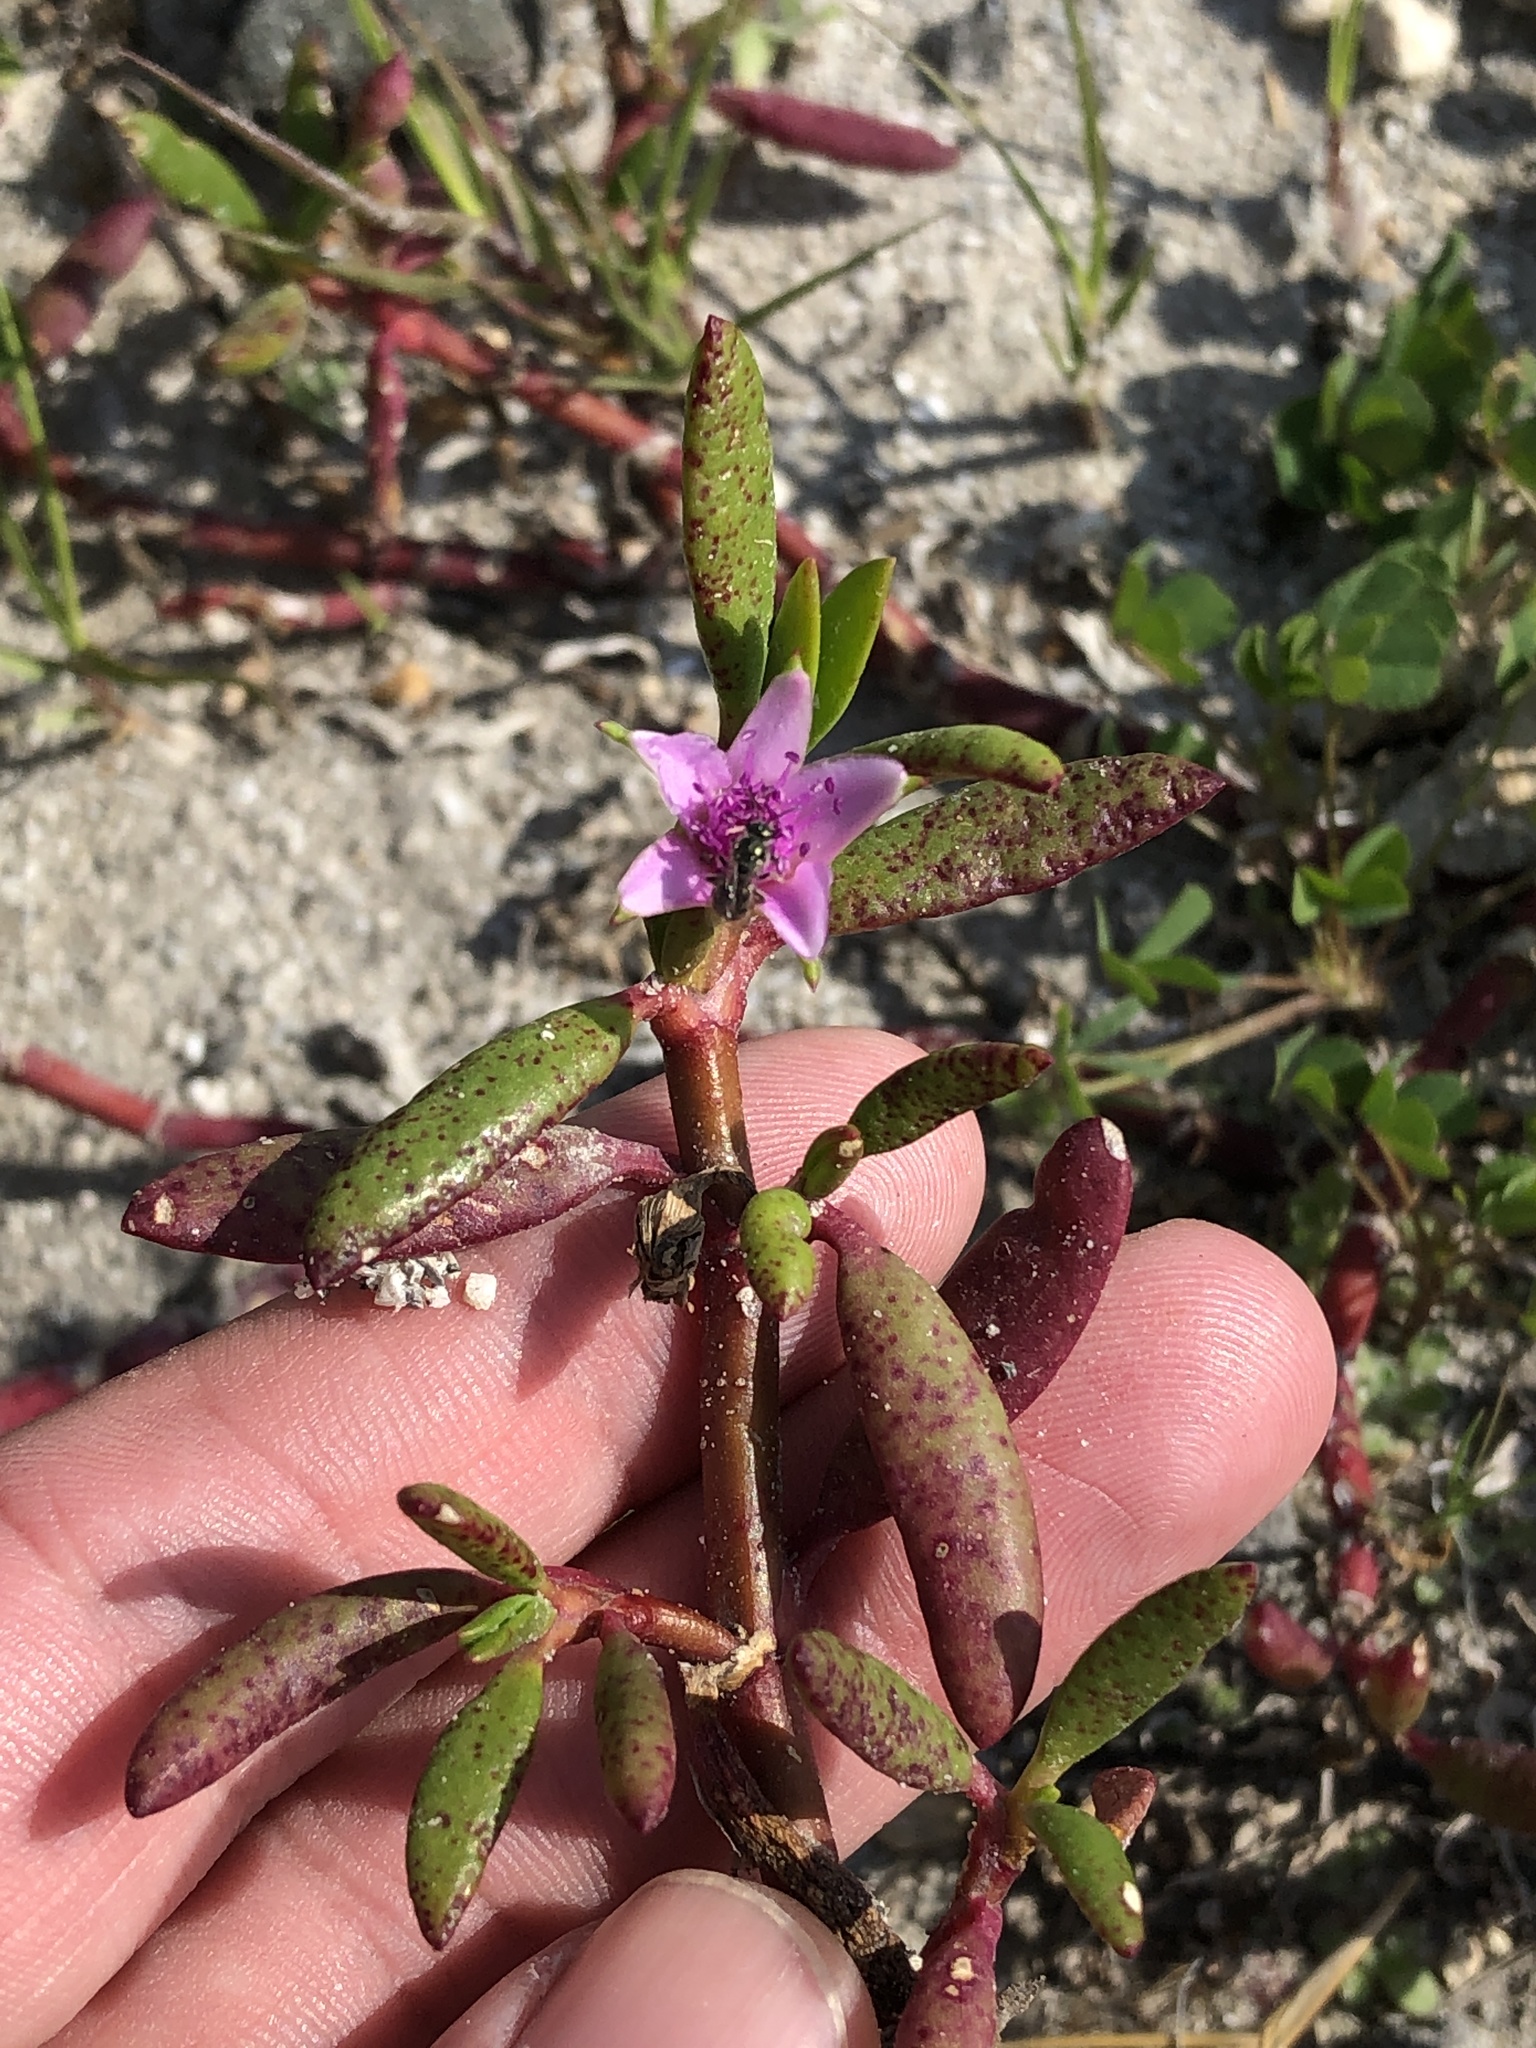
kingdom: Plantae
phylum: Tracheophyta
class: Magnoliopsida
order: Caryophyllales
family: Aizoaceae
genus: Sesuvium
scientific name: Sesuvium portulacastrum
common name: Sea-purslane
